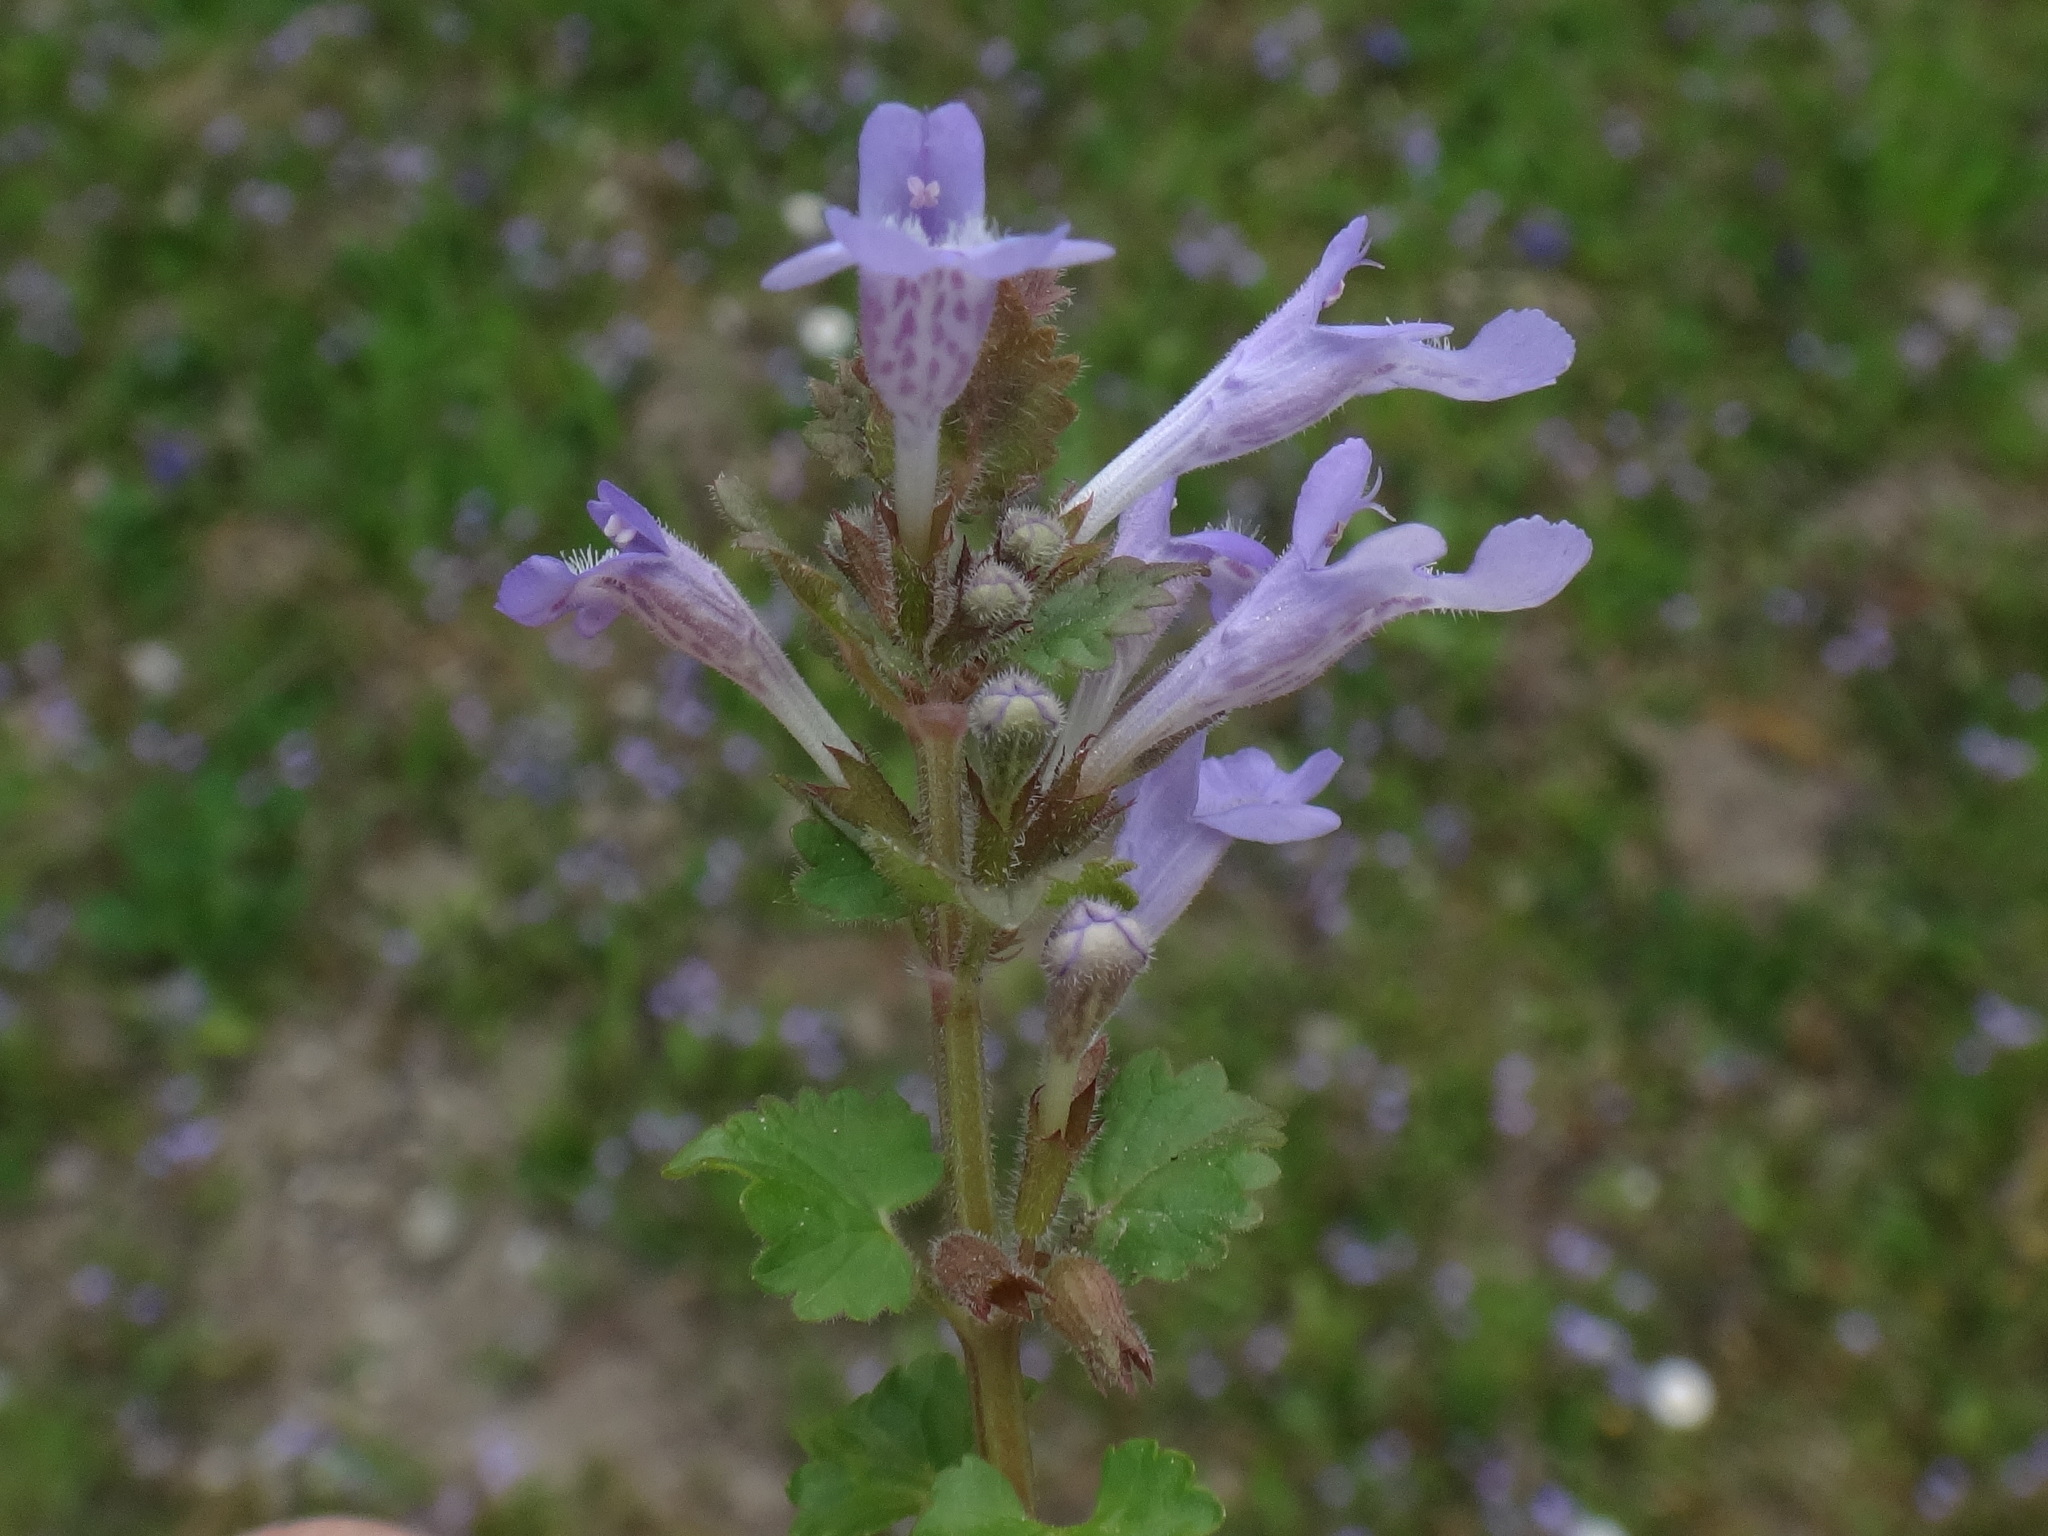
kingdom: Plantae
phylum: Tracheophyta
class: Magnoliopsida
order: Lamiales
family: Lamiaceae
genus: Glechoma
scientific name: Glechoma hederacea
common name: Ground ivy
